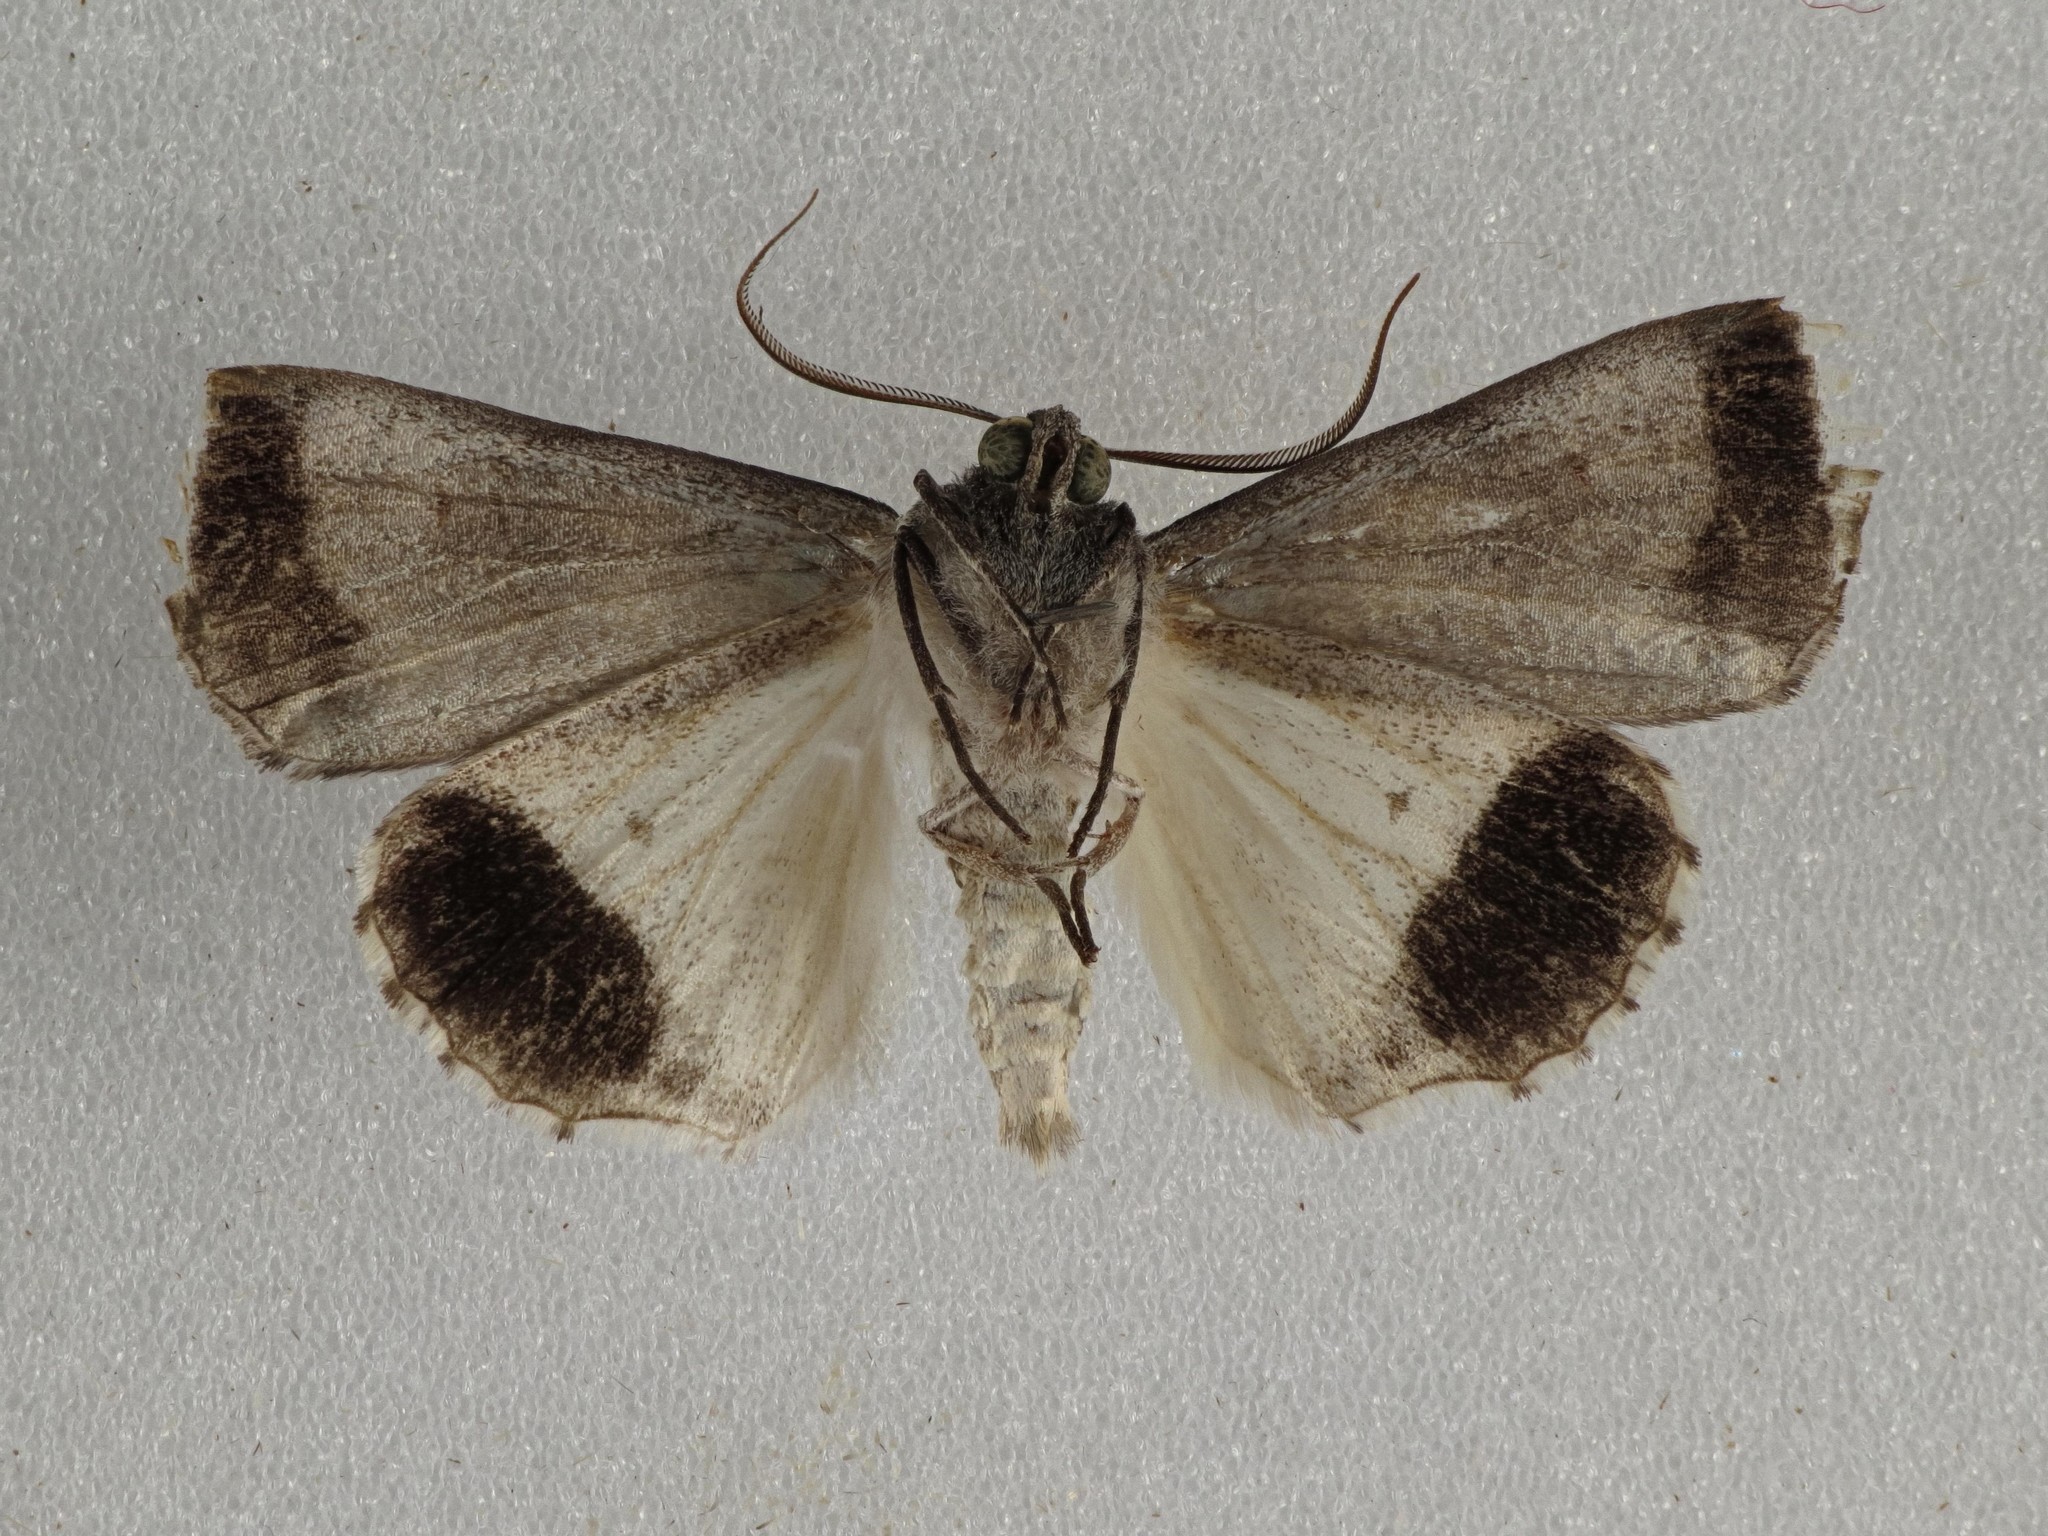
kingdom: Animalia
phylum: Arthropoda
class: Insecta
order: Lepidoptera
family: Geometridae
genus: Stibaractis
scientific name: Stibaractis melanotoxa
